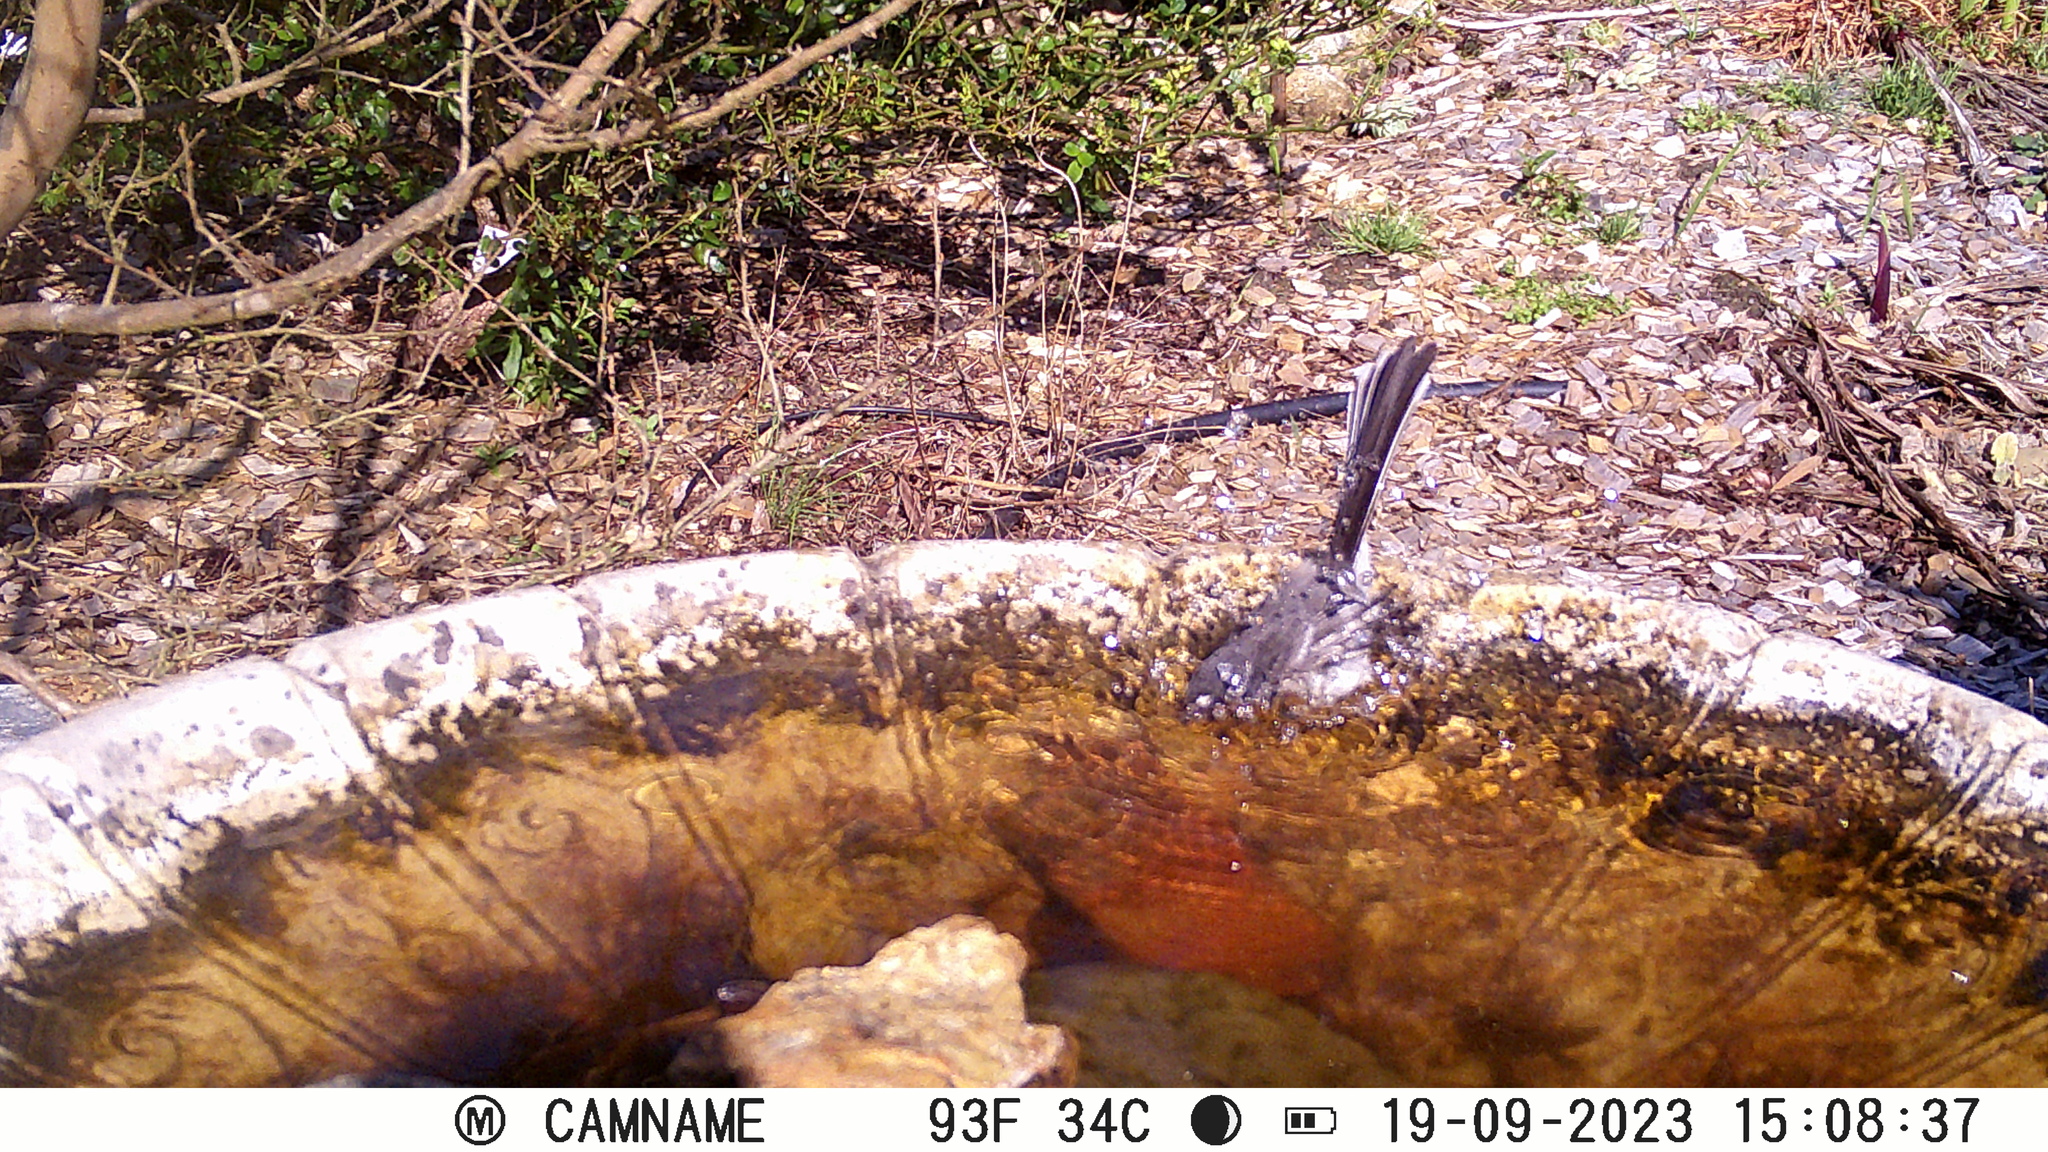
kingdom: Animalia
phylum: Chordata
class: Aves
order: Passeriformes
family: Rhipiduridae
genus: Rhipidura
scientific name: Rhipidura albiscapa
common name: Grey fantail
